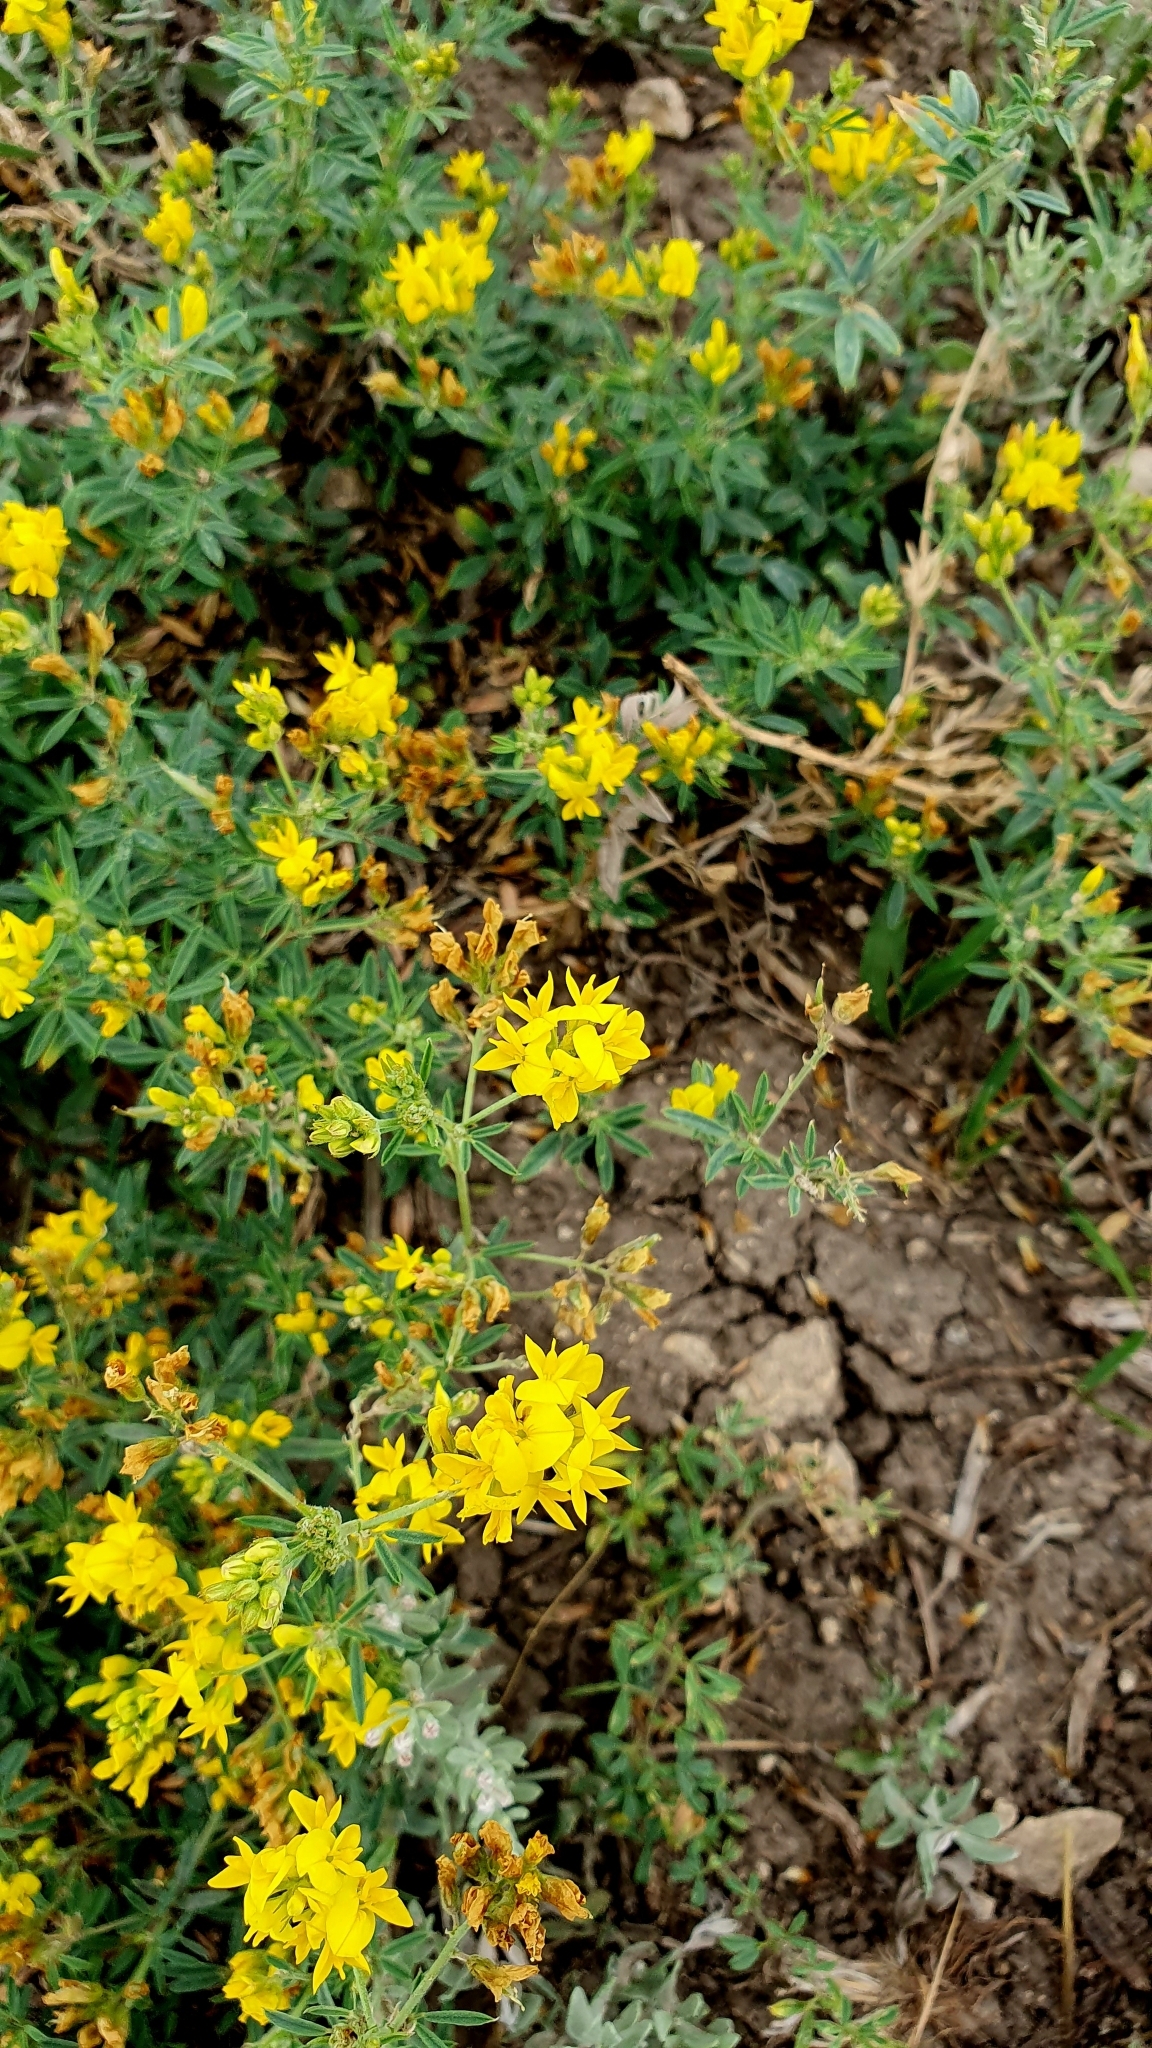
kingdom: Plantae
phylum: Tracheophyta
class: Magnoliopsida
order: Fabales
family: Fabaceae
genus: Medicago
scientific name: Medicago falcata
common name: Sickle medick
